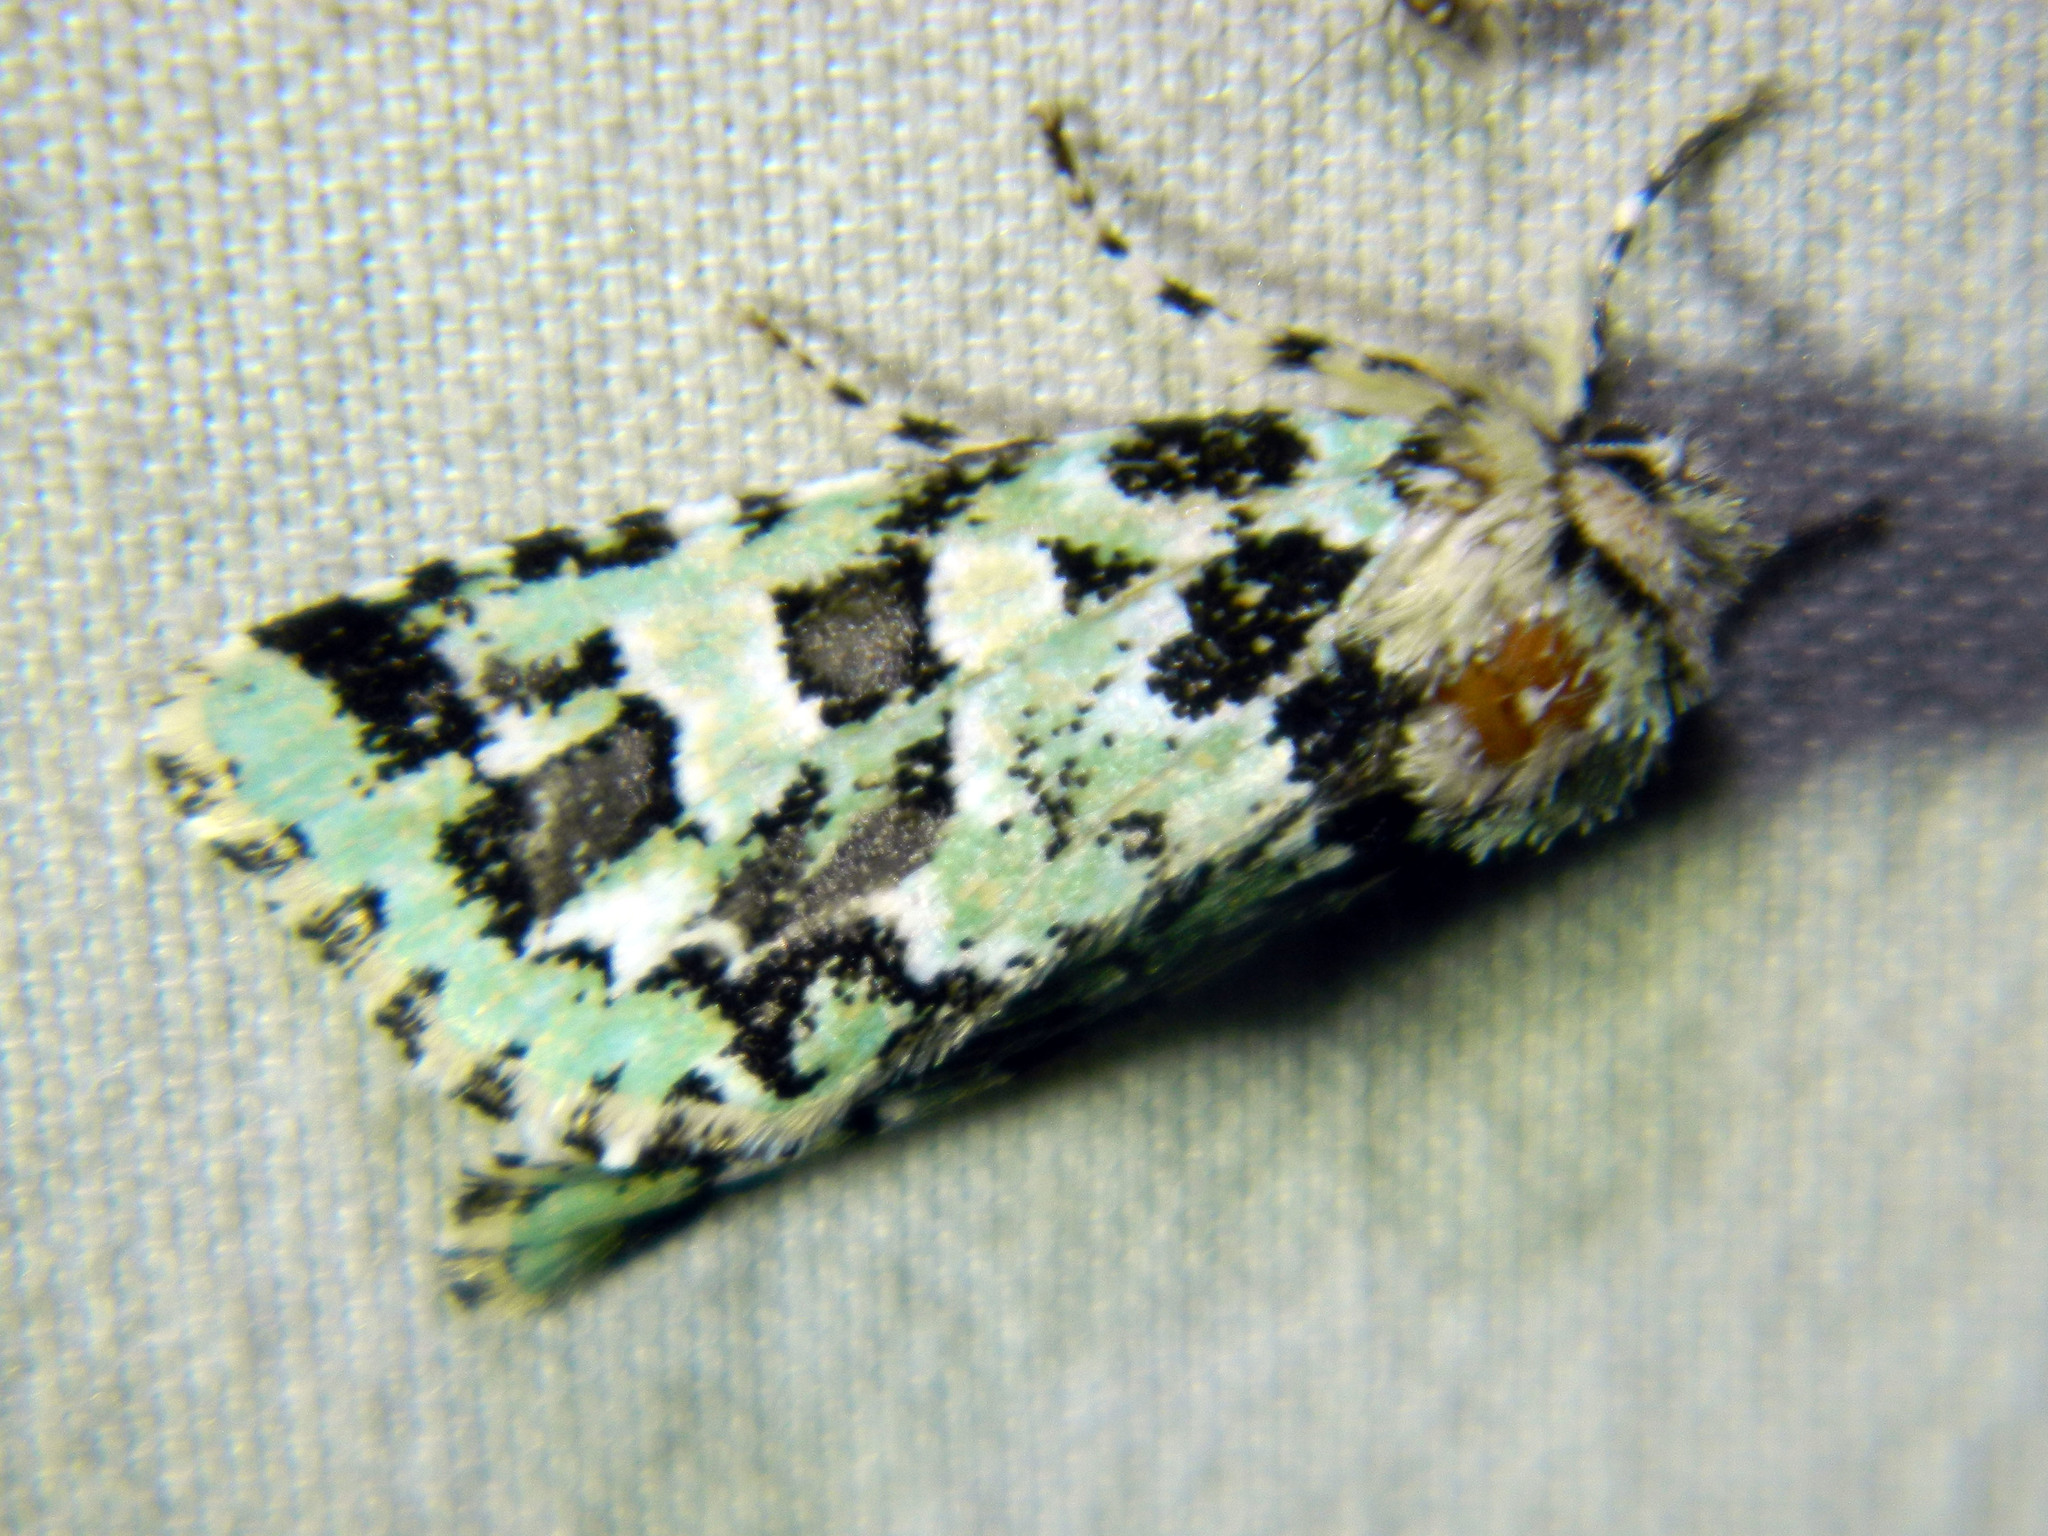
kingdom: Animalia
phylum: Arthropoda
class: Insecta
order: Lepidoptera
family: Noctuidae
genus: Feralia
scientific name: Feralia comstocki
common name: Comstock's sallow
